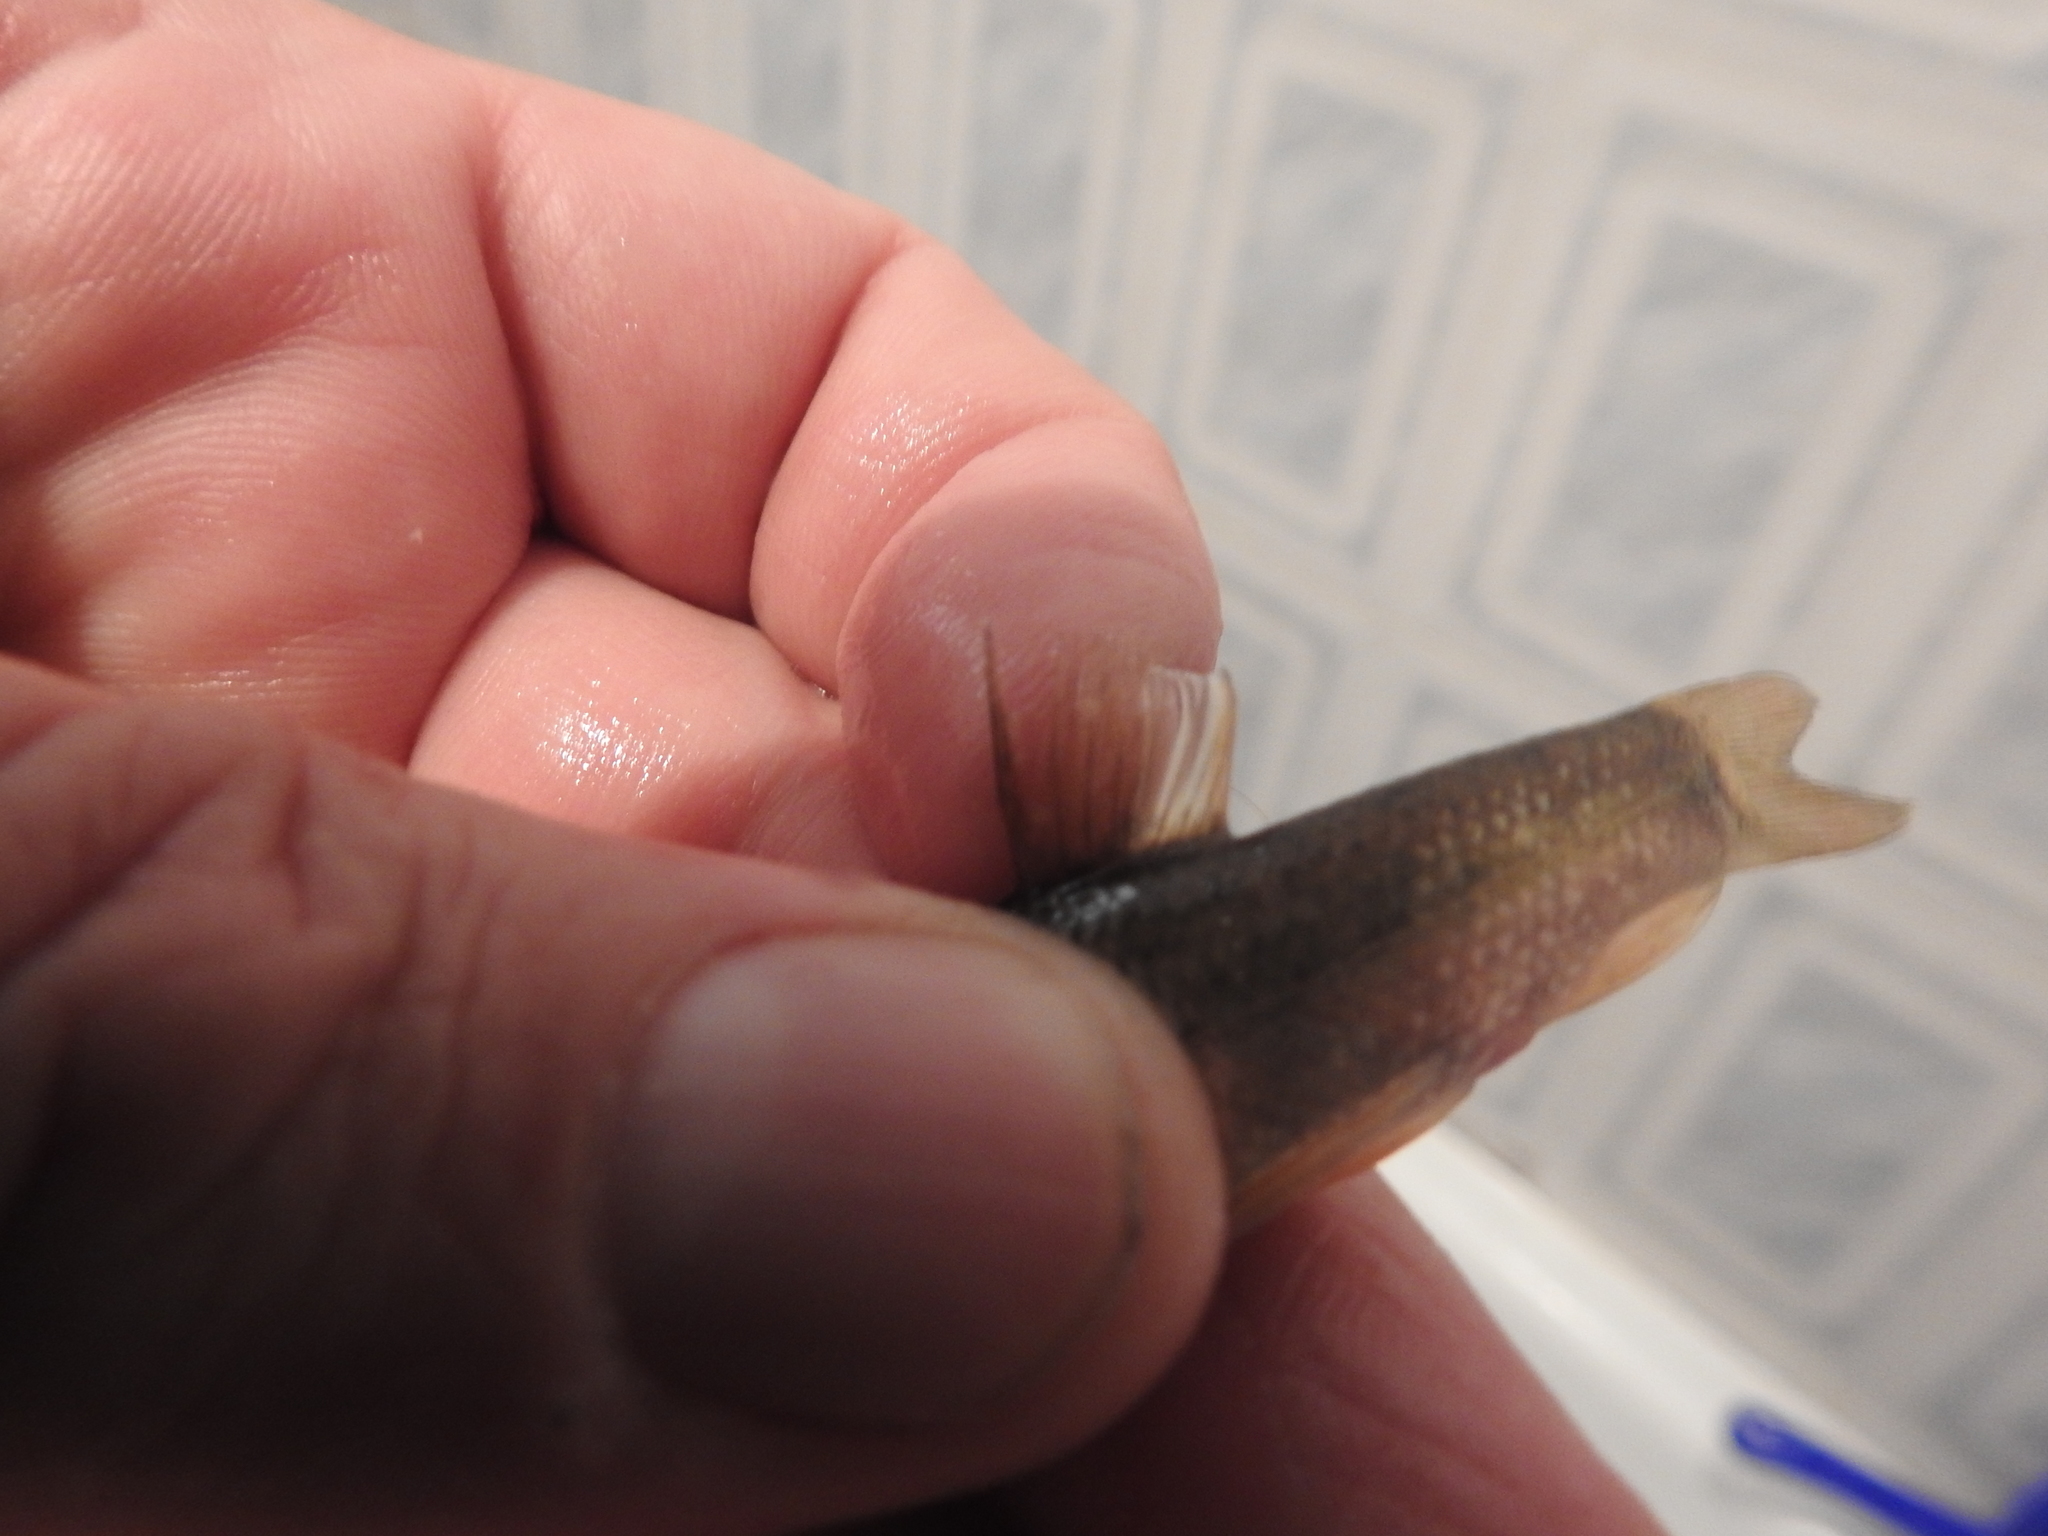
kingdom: Animalia
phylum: Chordata
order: Cypriniformes
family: Cyprinidae
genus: Pseudophoxinus
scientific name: Pseudophoxinus callensis
